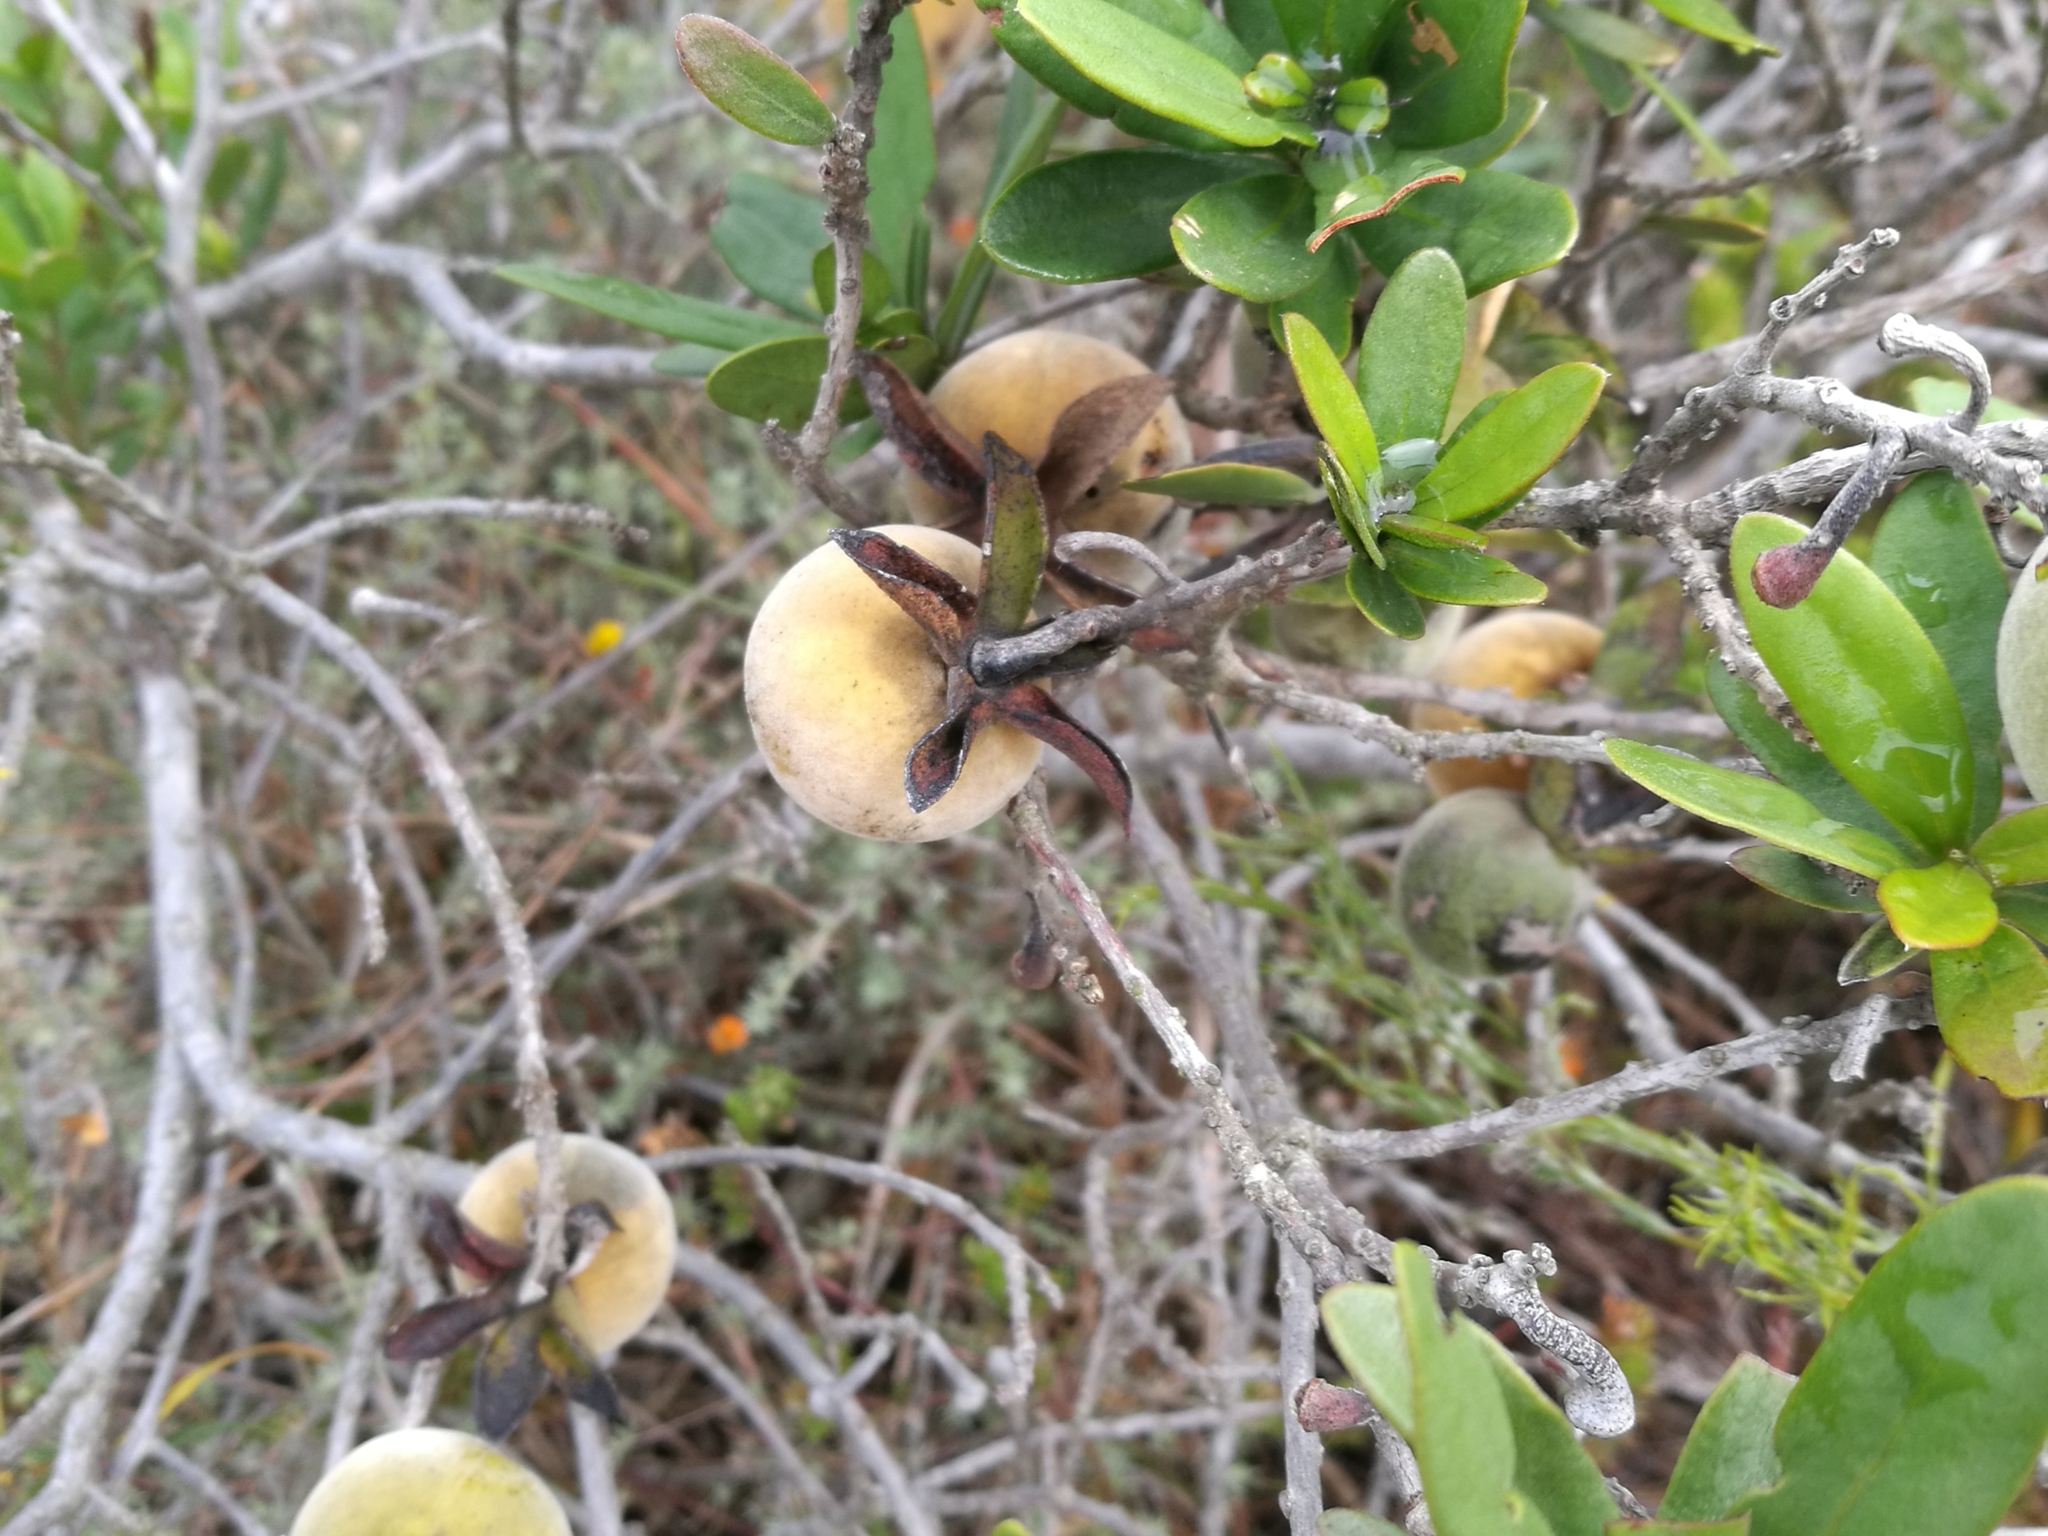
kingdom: Plantae
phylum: Tracheophyta
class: Magnoliopsida
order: Ericales
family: Ebenaceae
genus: Diospyros
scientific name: Diospyros dichrophylla
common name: Common star-apple
